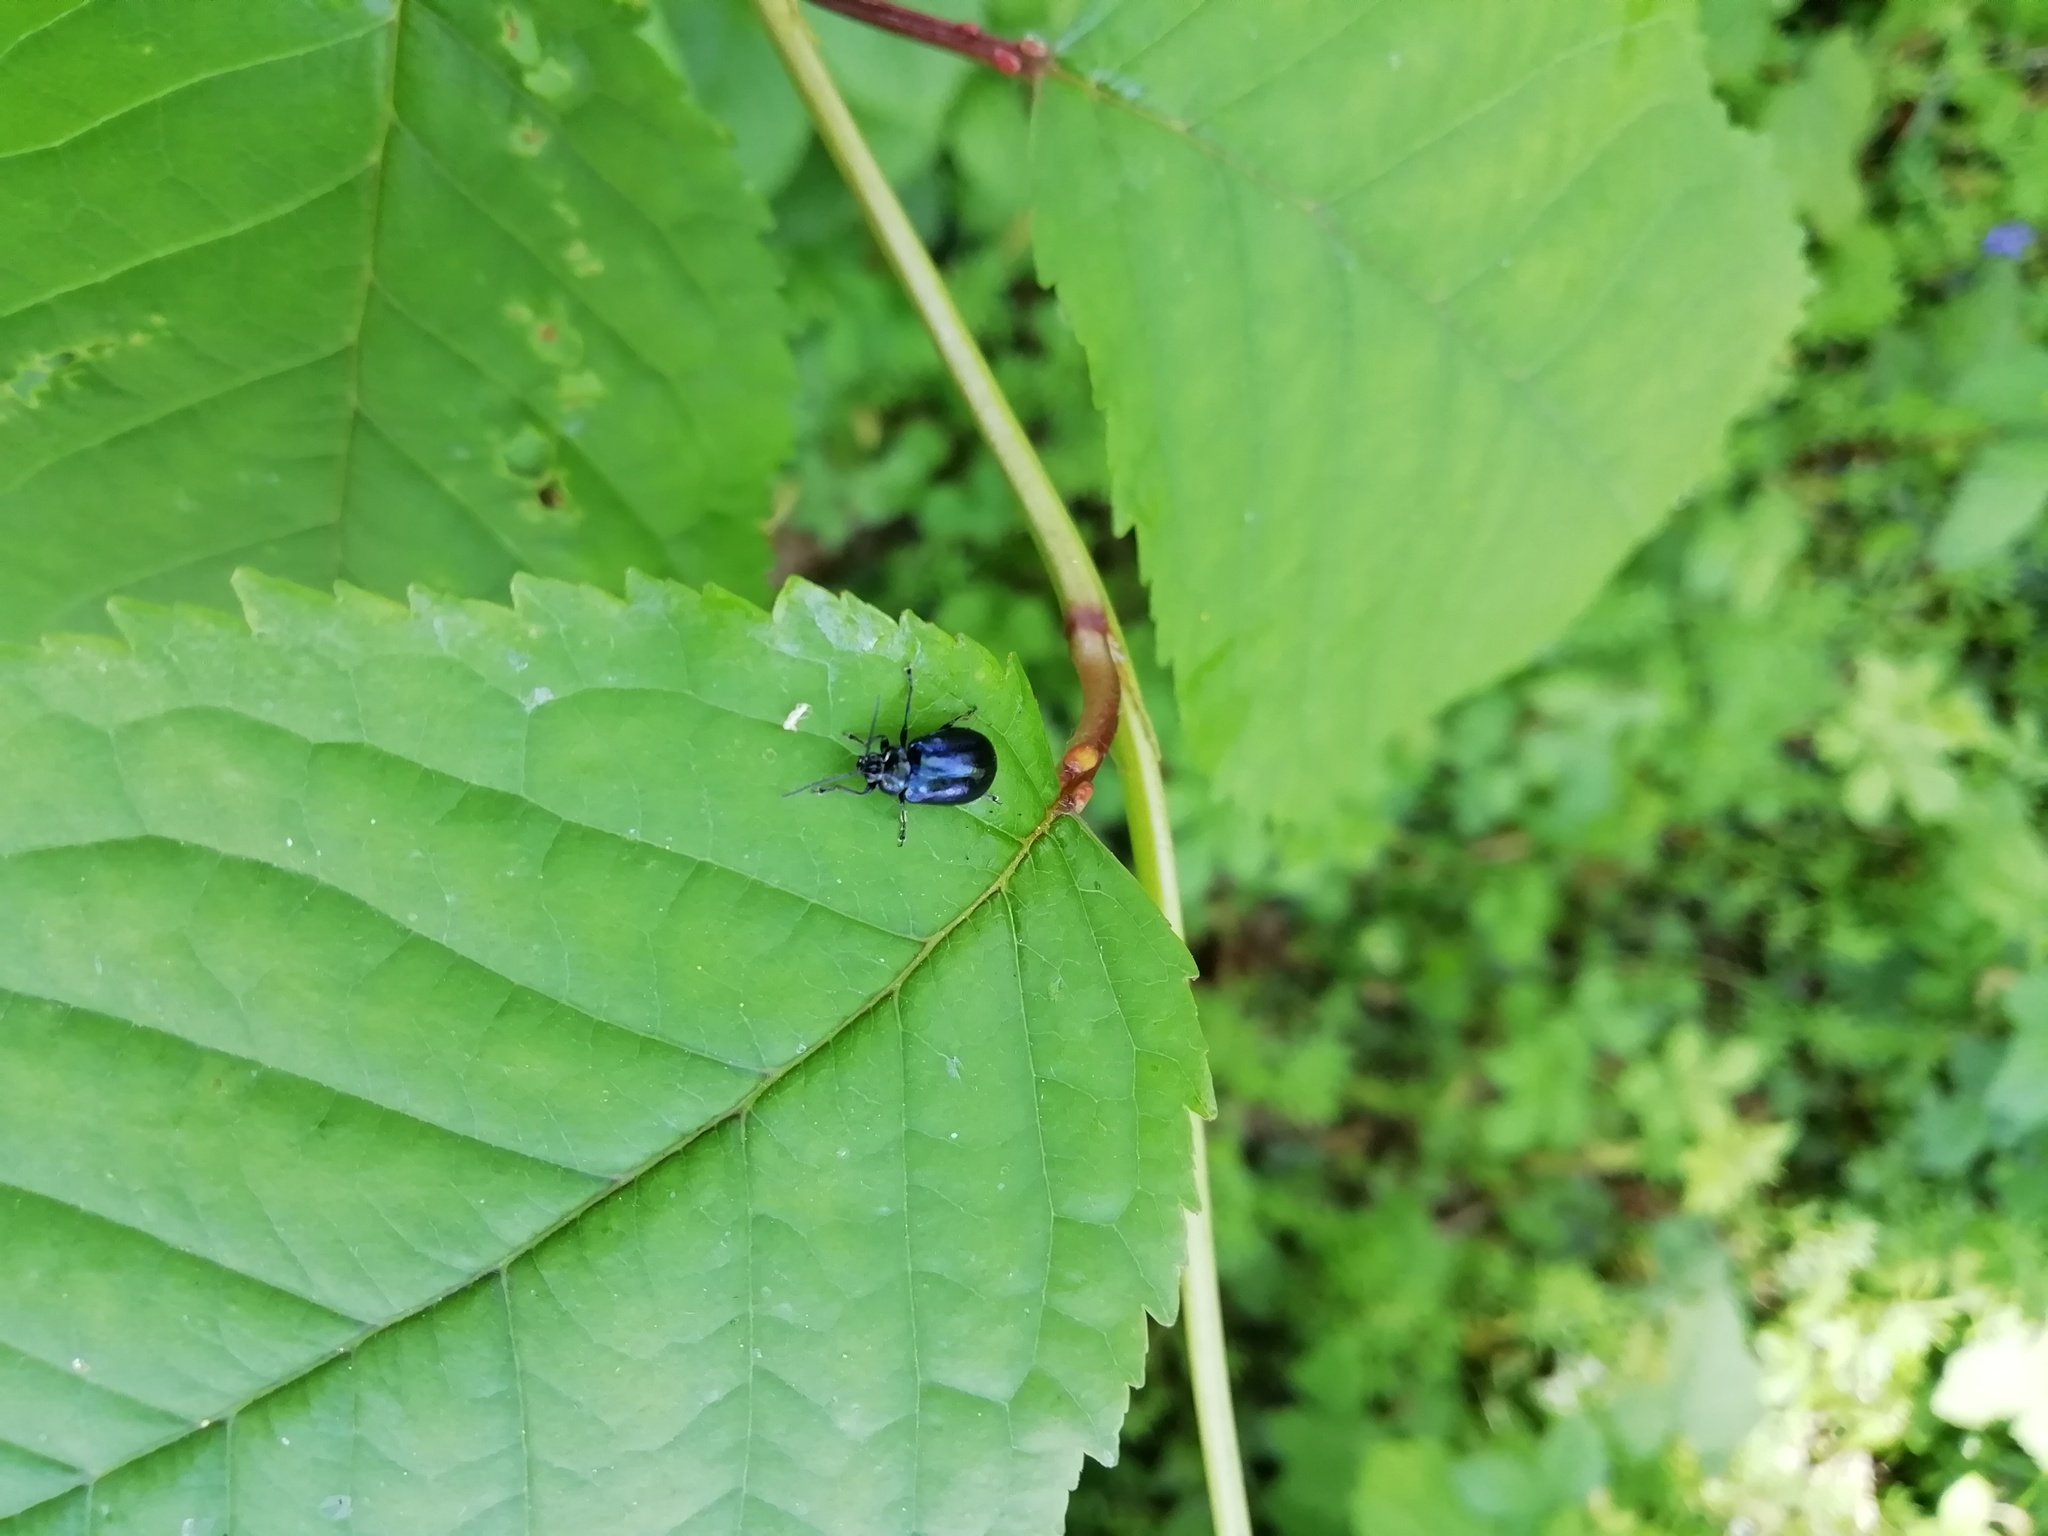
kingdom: Animalia
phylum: Arthropoda
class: Insecta
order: Coleoptera
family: Chrysomelidae
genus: Agelastica
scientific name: Agelastica alni
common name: Alder leaf beetle
